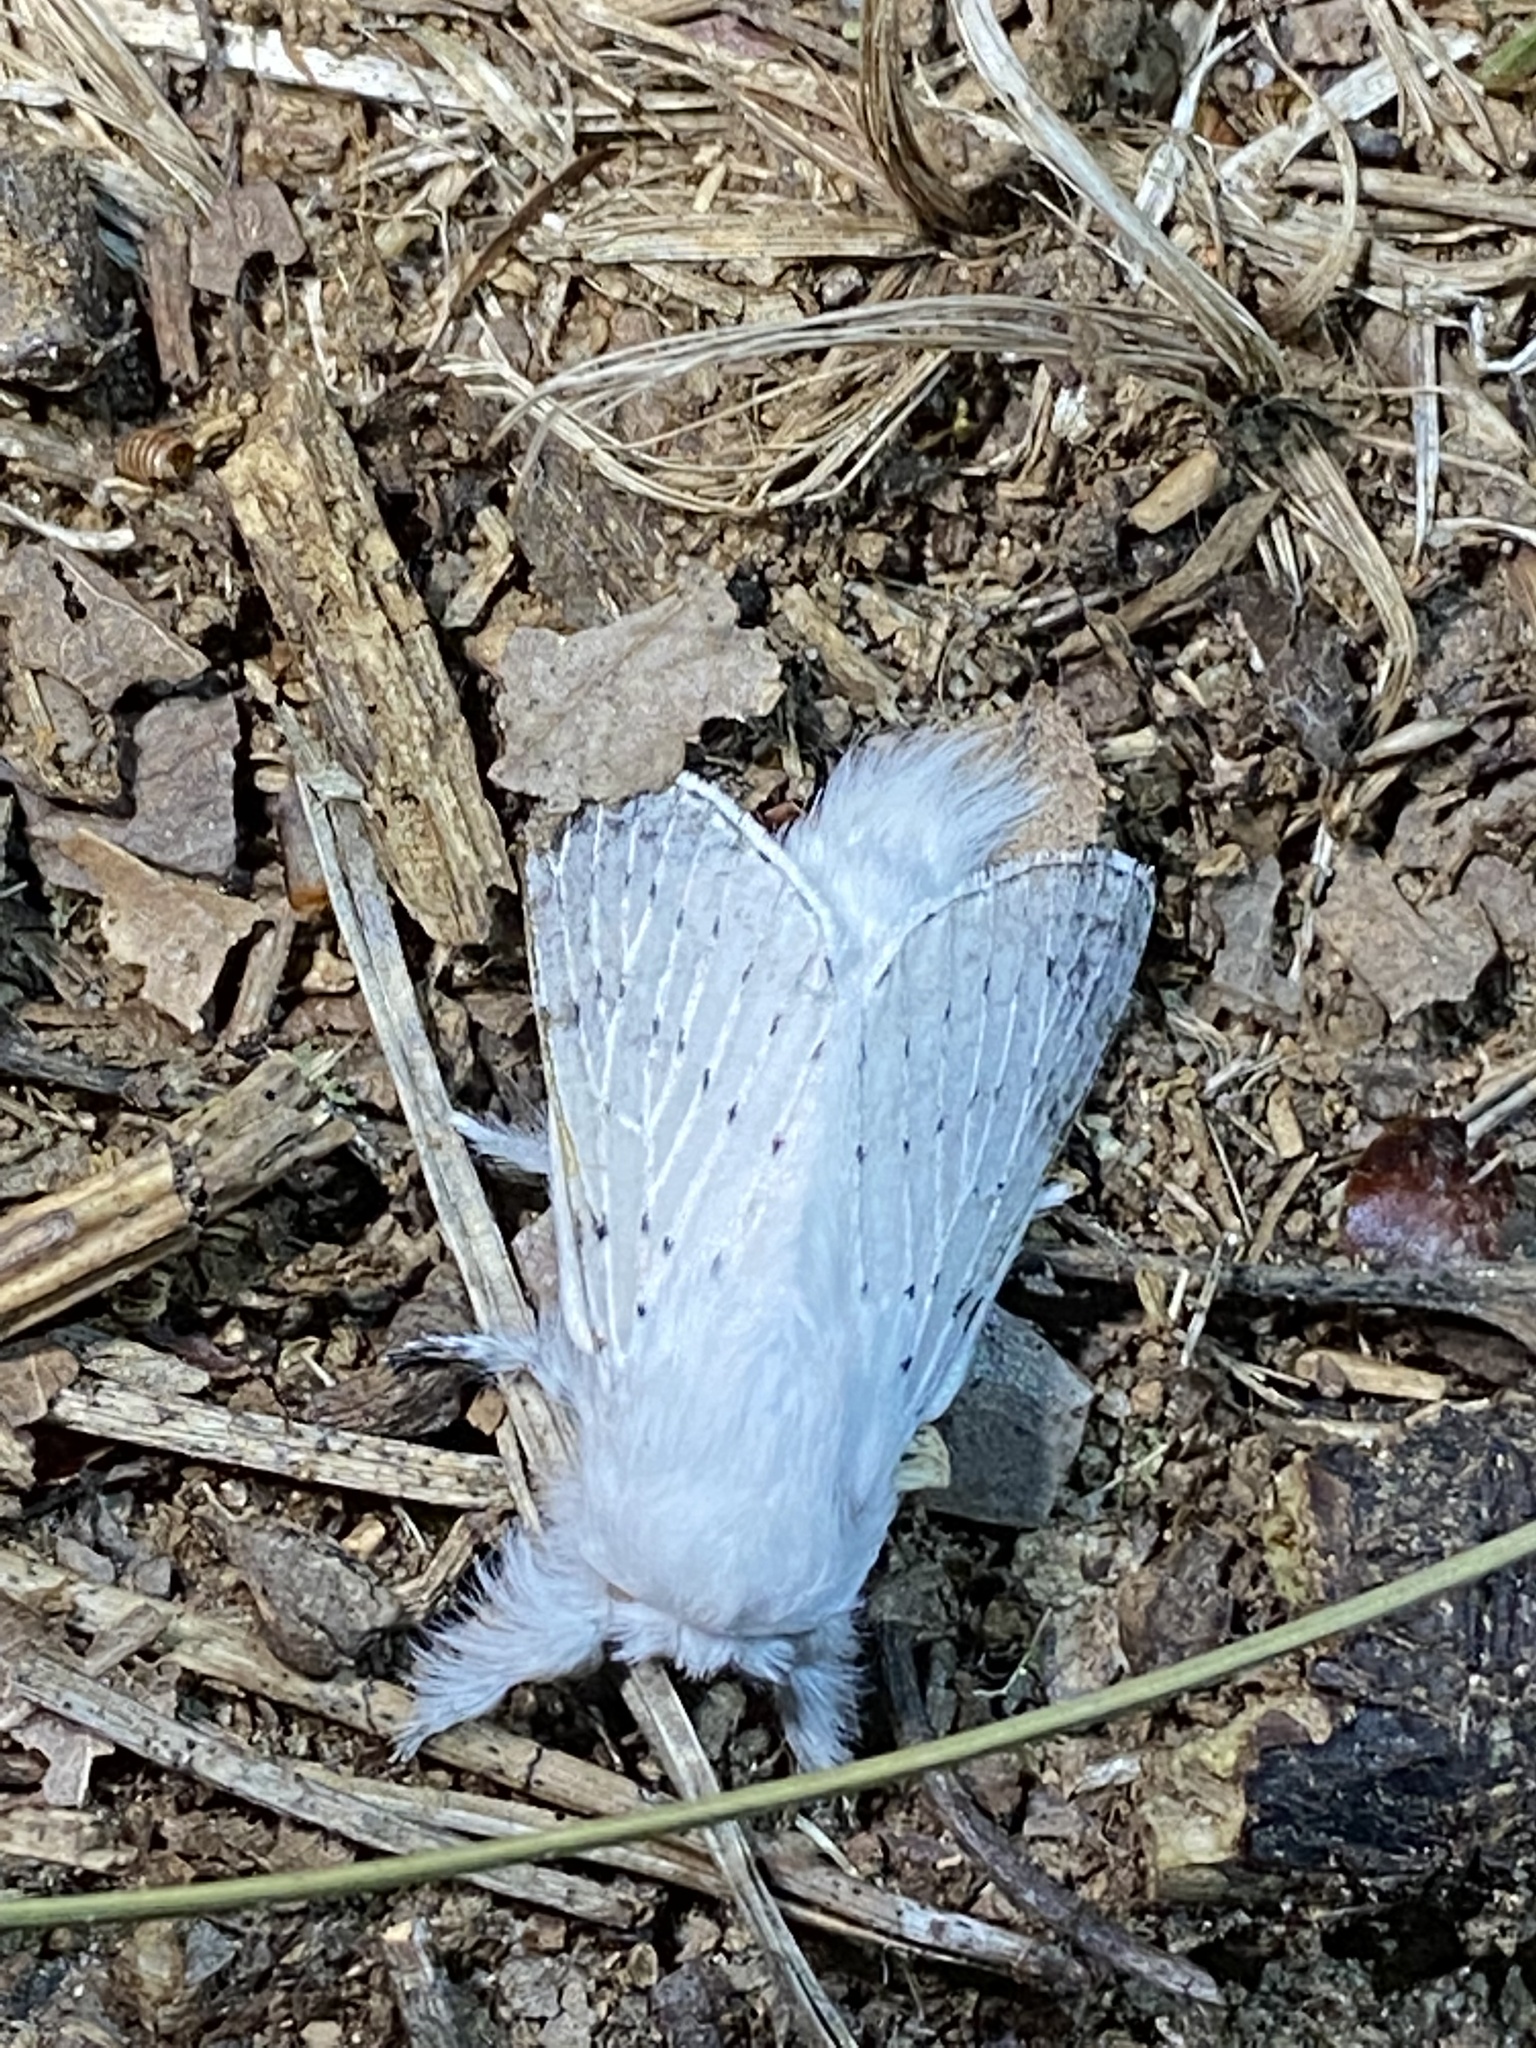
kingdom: Animalia
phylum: Arthropoda
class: Insecta
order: Lepidoptera
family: Lasiocampidae
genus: Artace
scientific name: Artace cribrarius
